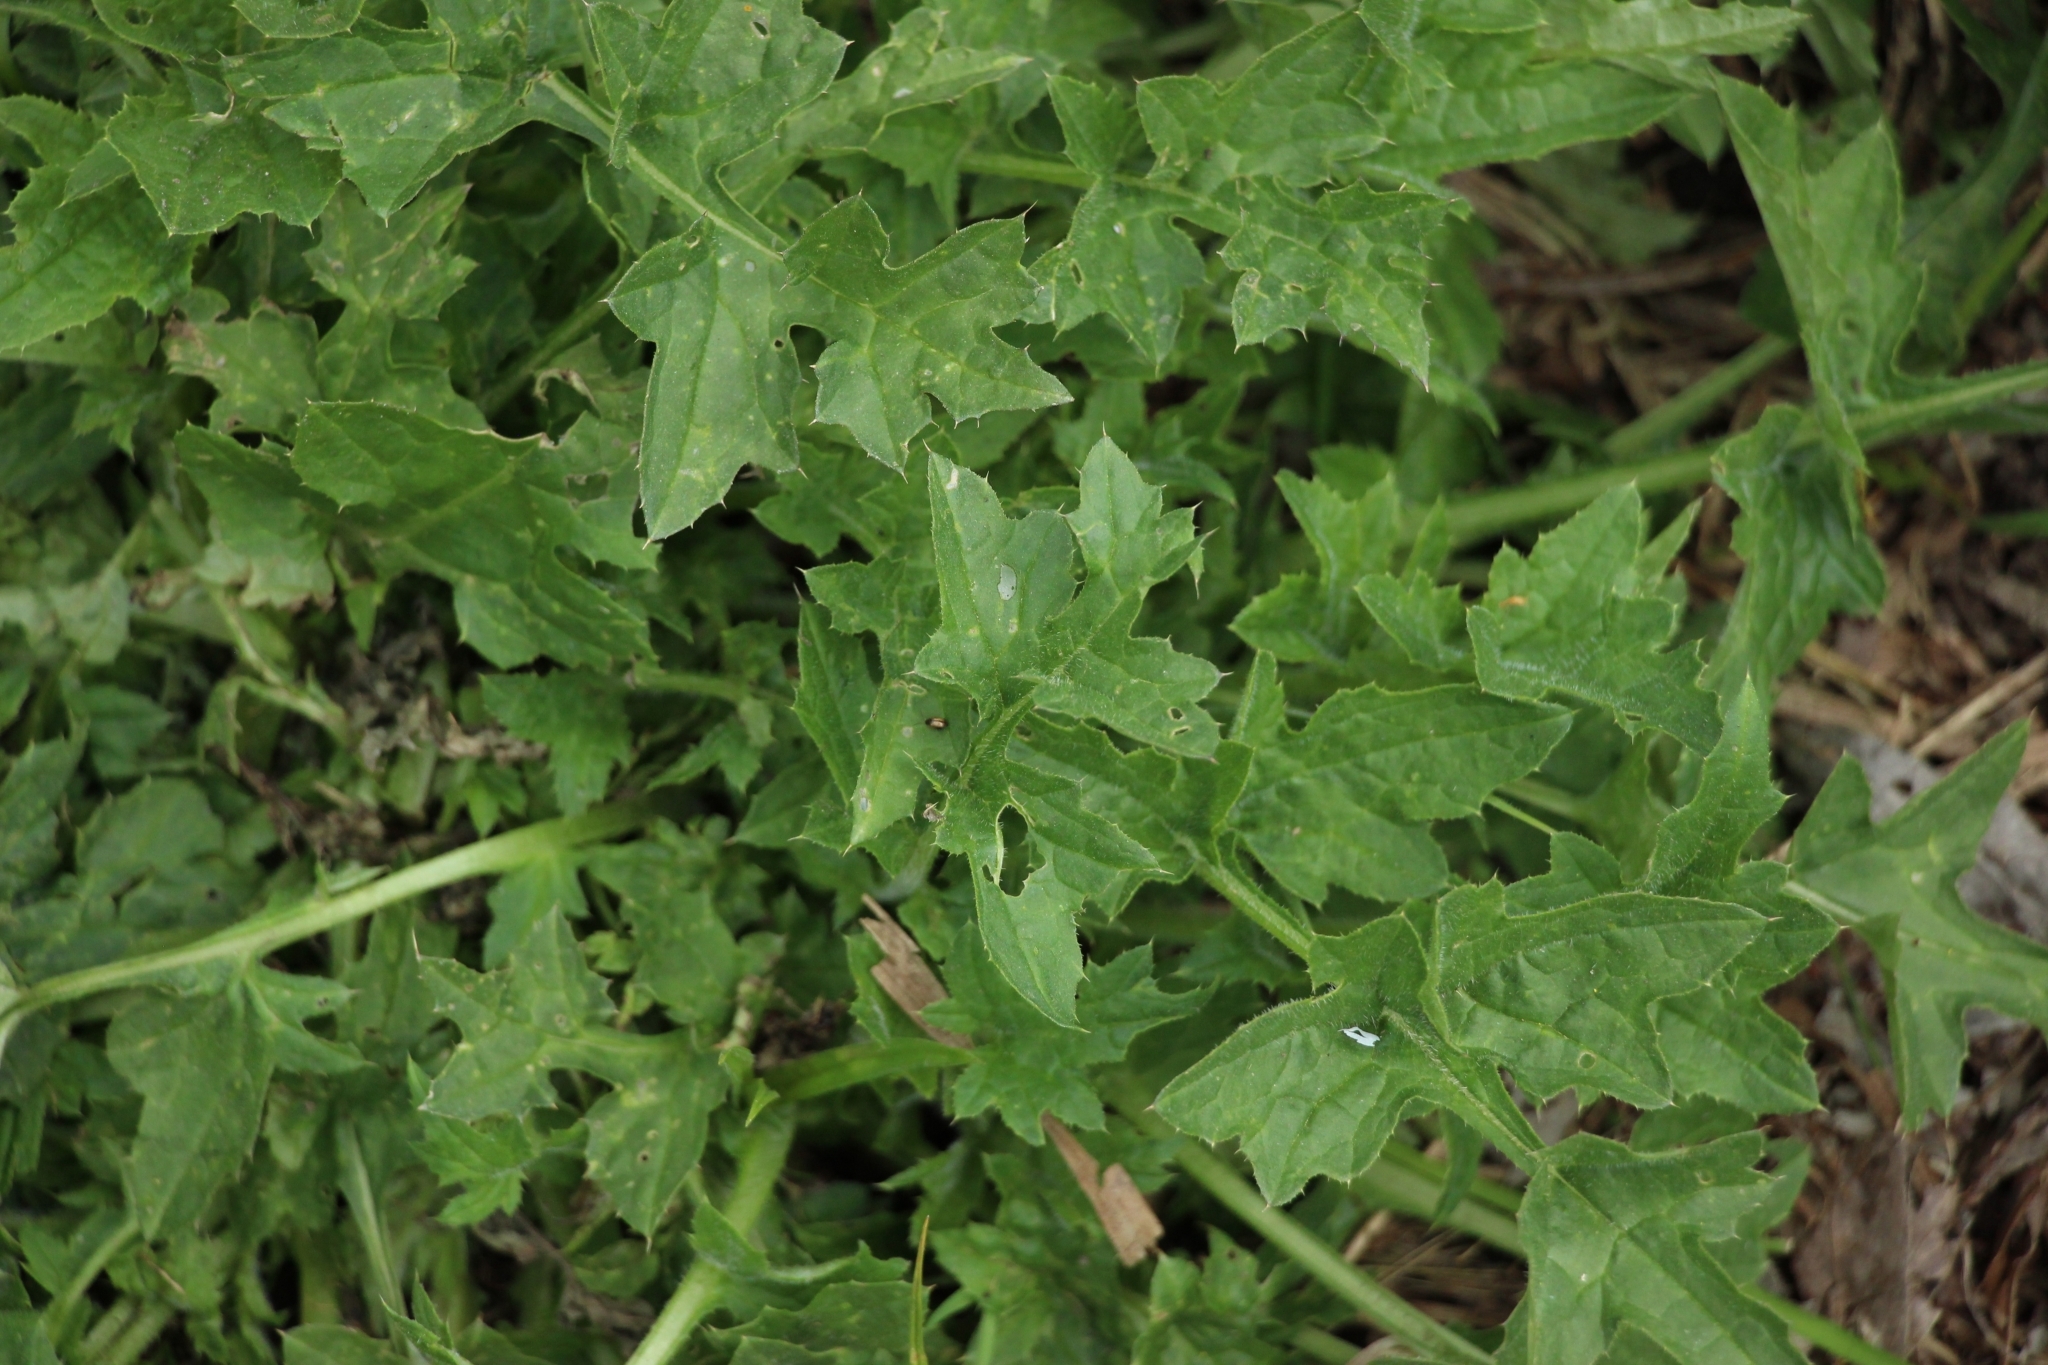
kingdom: Plantae
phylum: Tracheophyta
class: Magnoliopsida
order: Asterales
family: Asteraceae
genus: Carduus
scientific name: Carduus crispus
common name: Welted thistle
